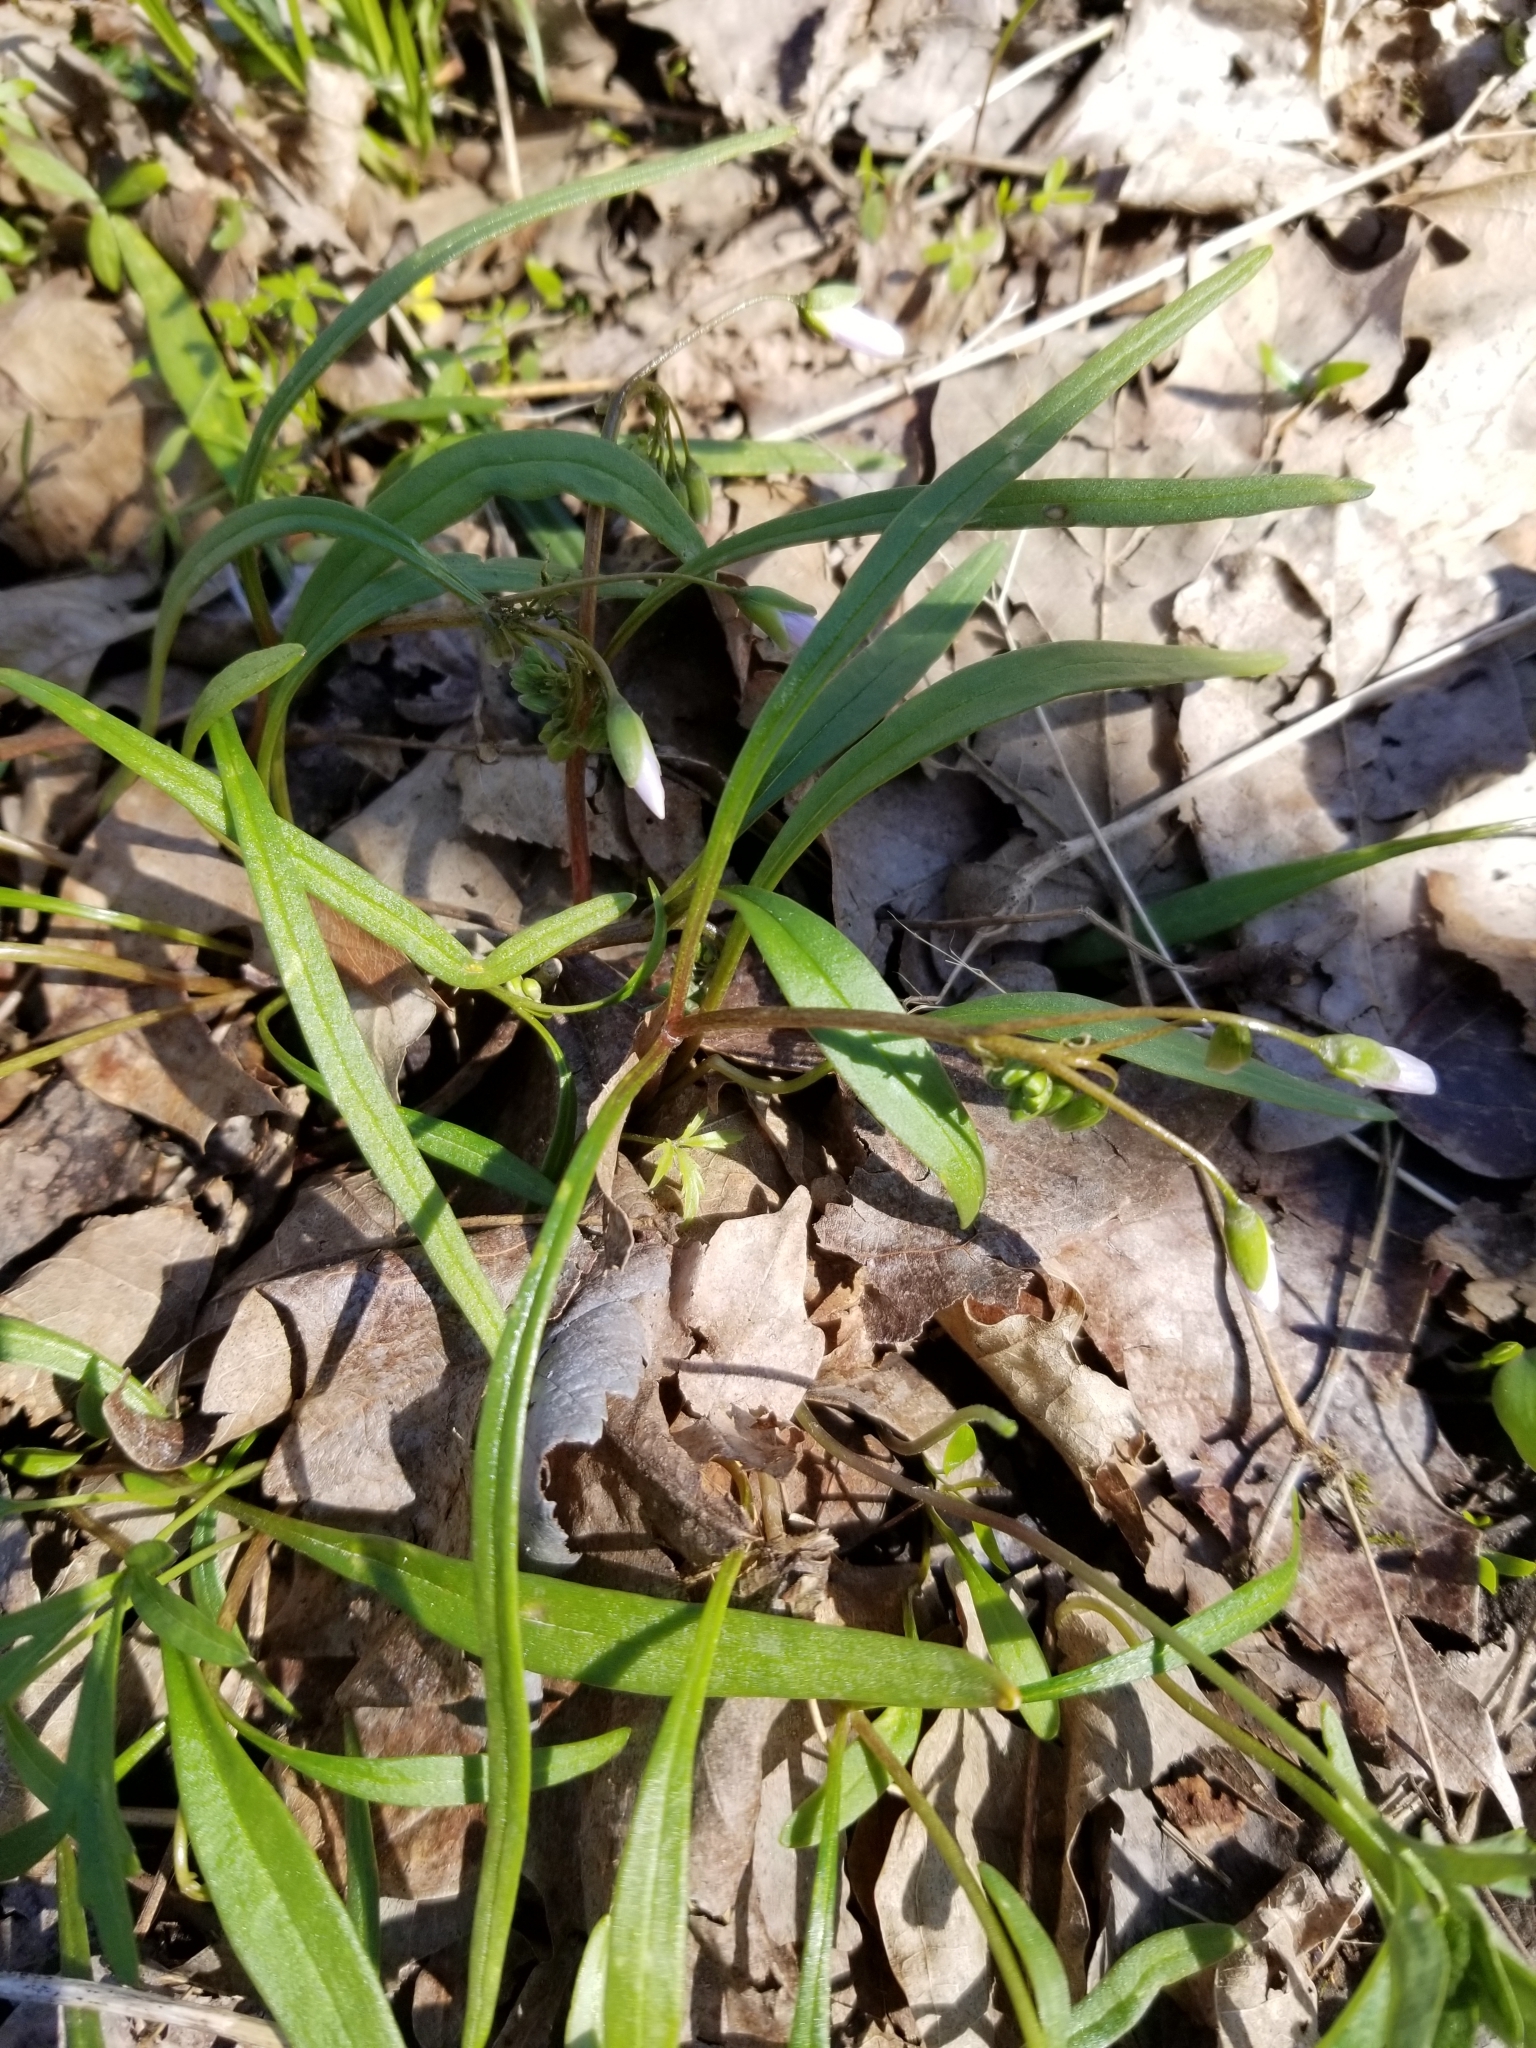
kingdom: Plantae
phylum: Tracheophyta
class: Magnoliopsida
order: Caryophyllales
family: Montiaceae
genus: Claytonia
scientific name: Claytonia virginica
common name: Virginia springbeauty
